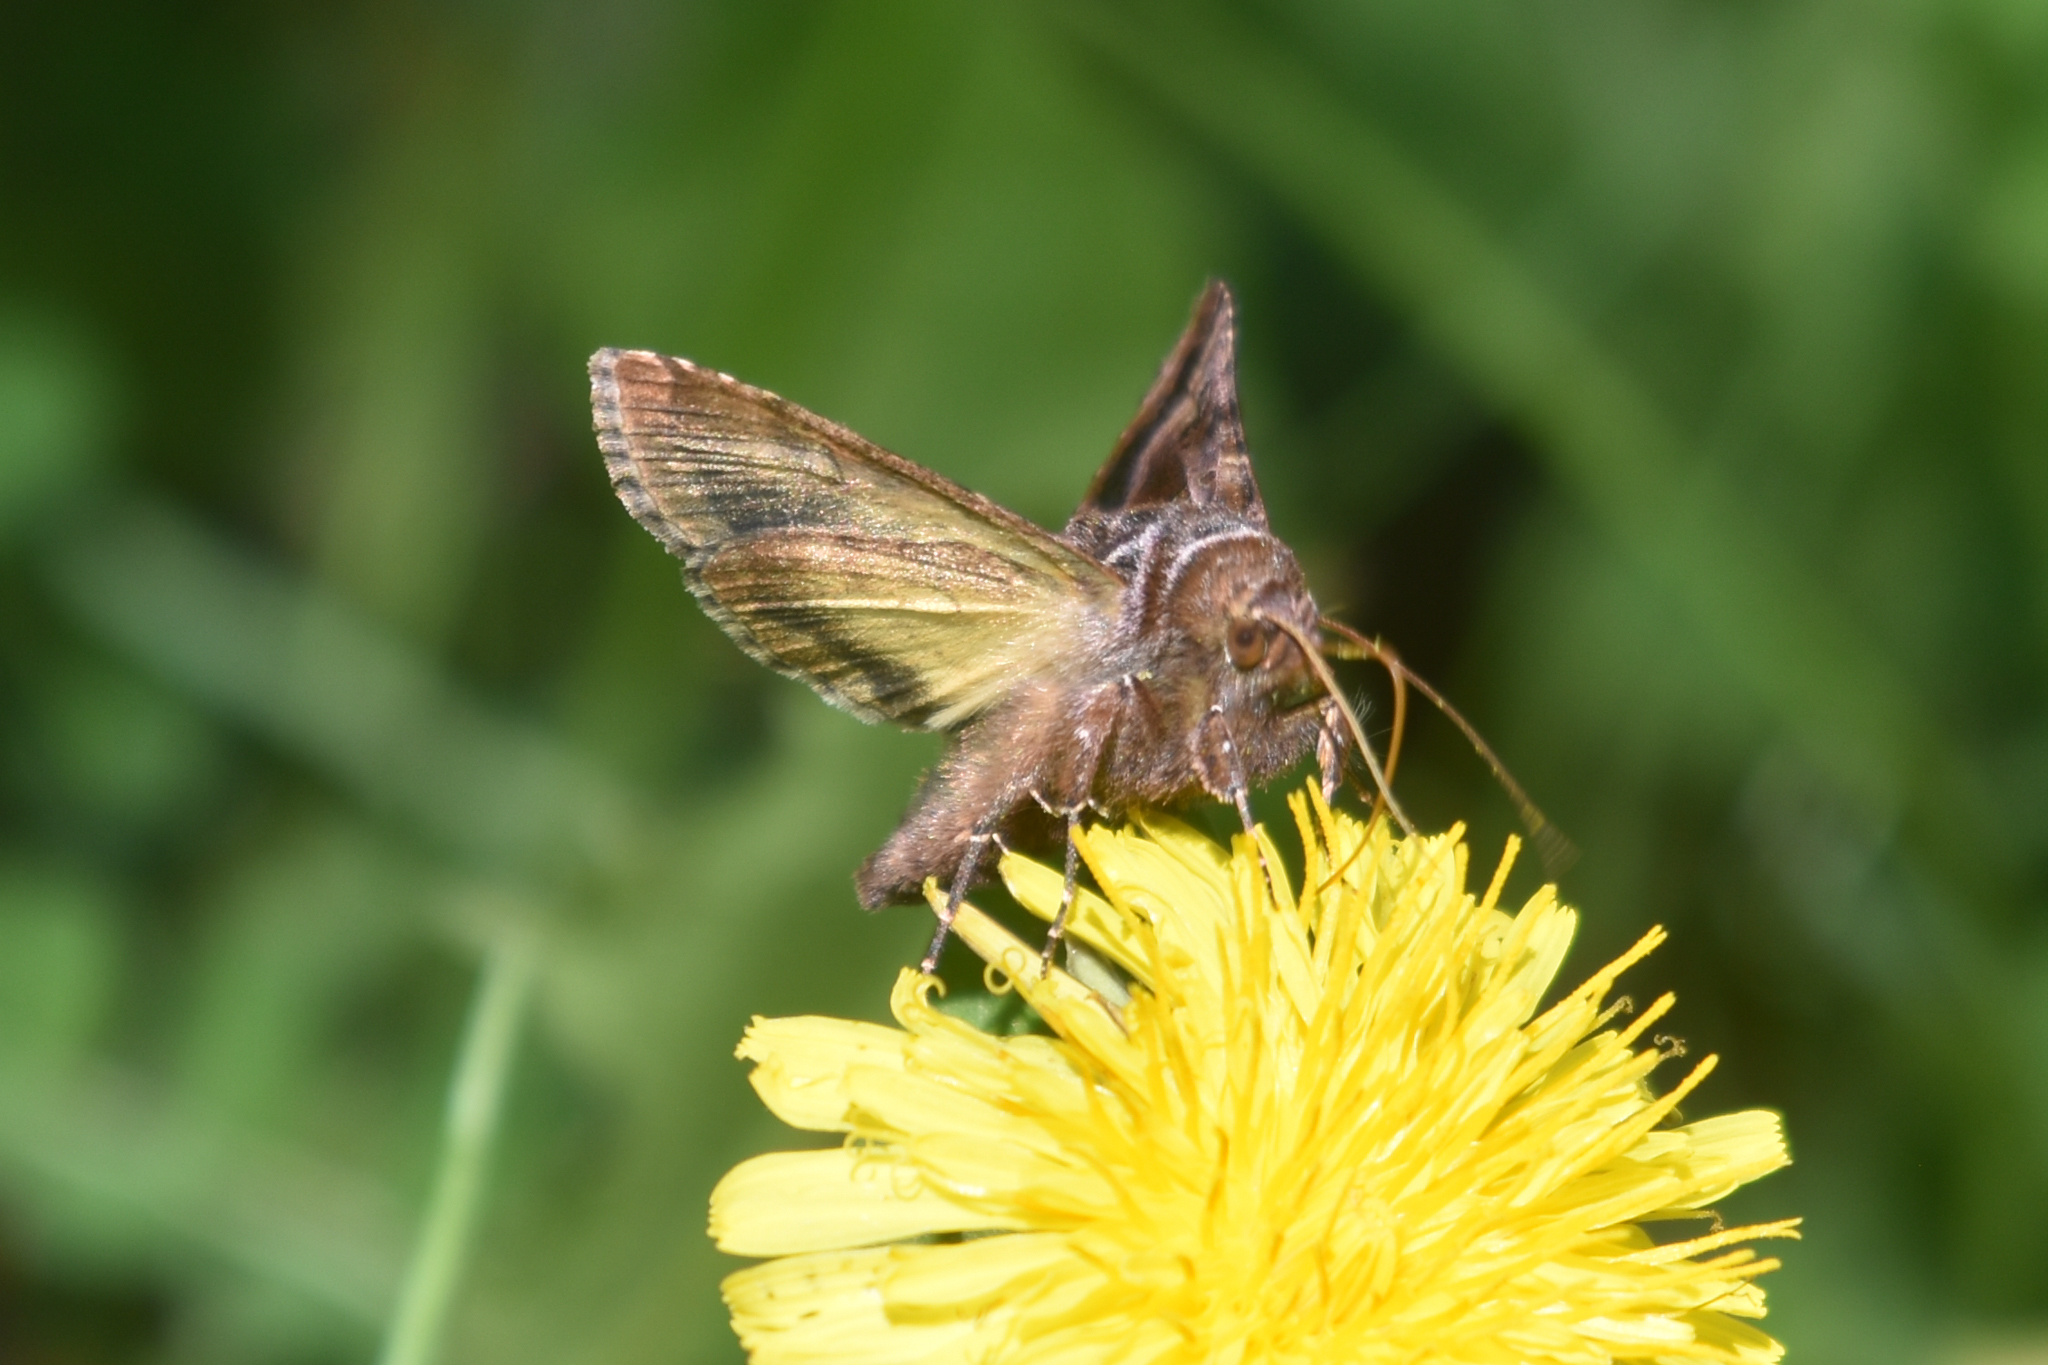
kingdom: Animalia
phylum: Arthropoda
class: Insecta
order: Lepidoptera
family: Noctuidae
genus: Autographa
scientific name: Autographa sansoni
